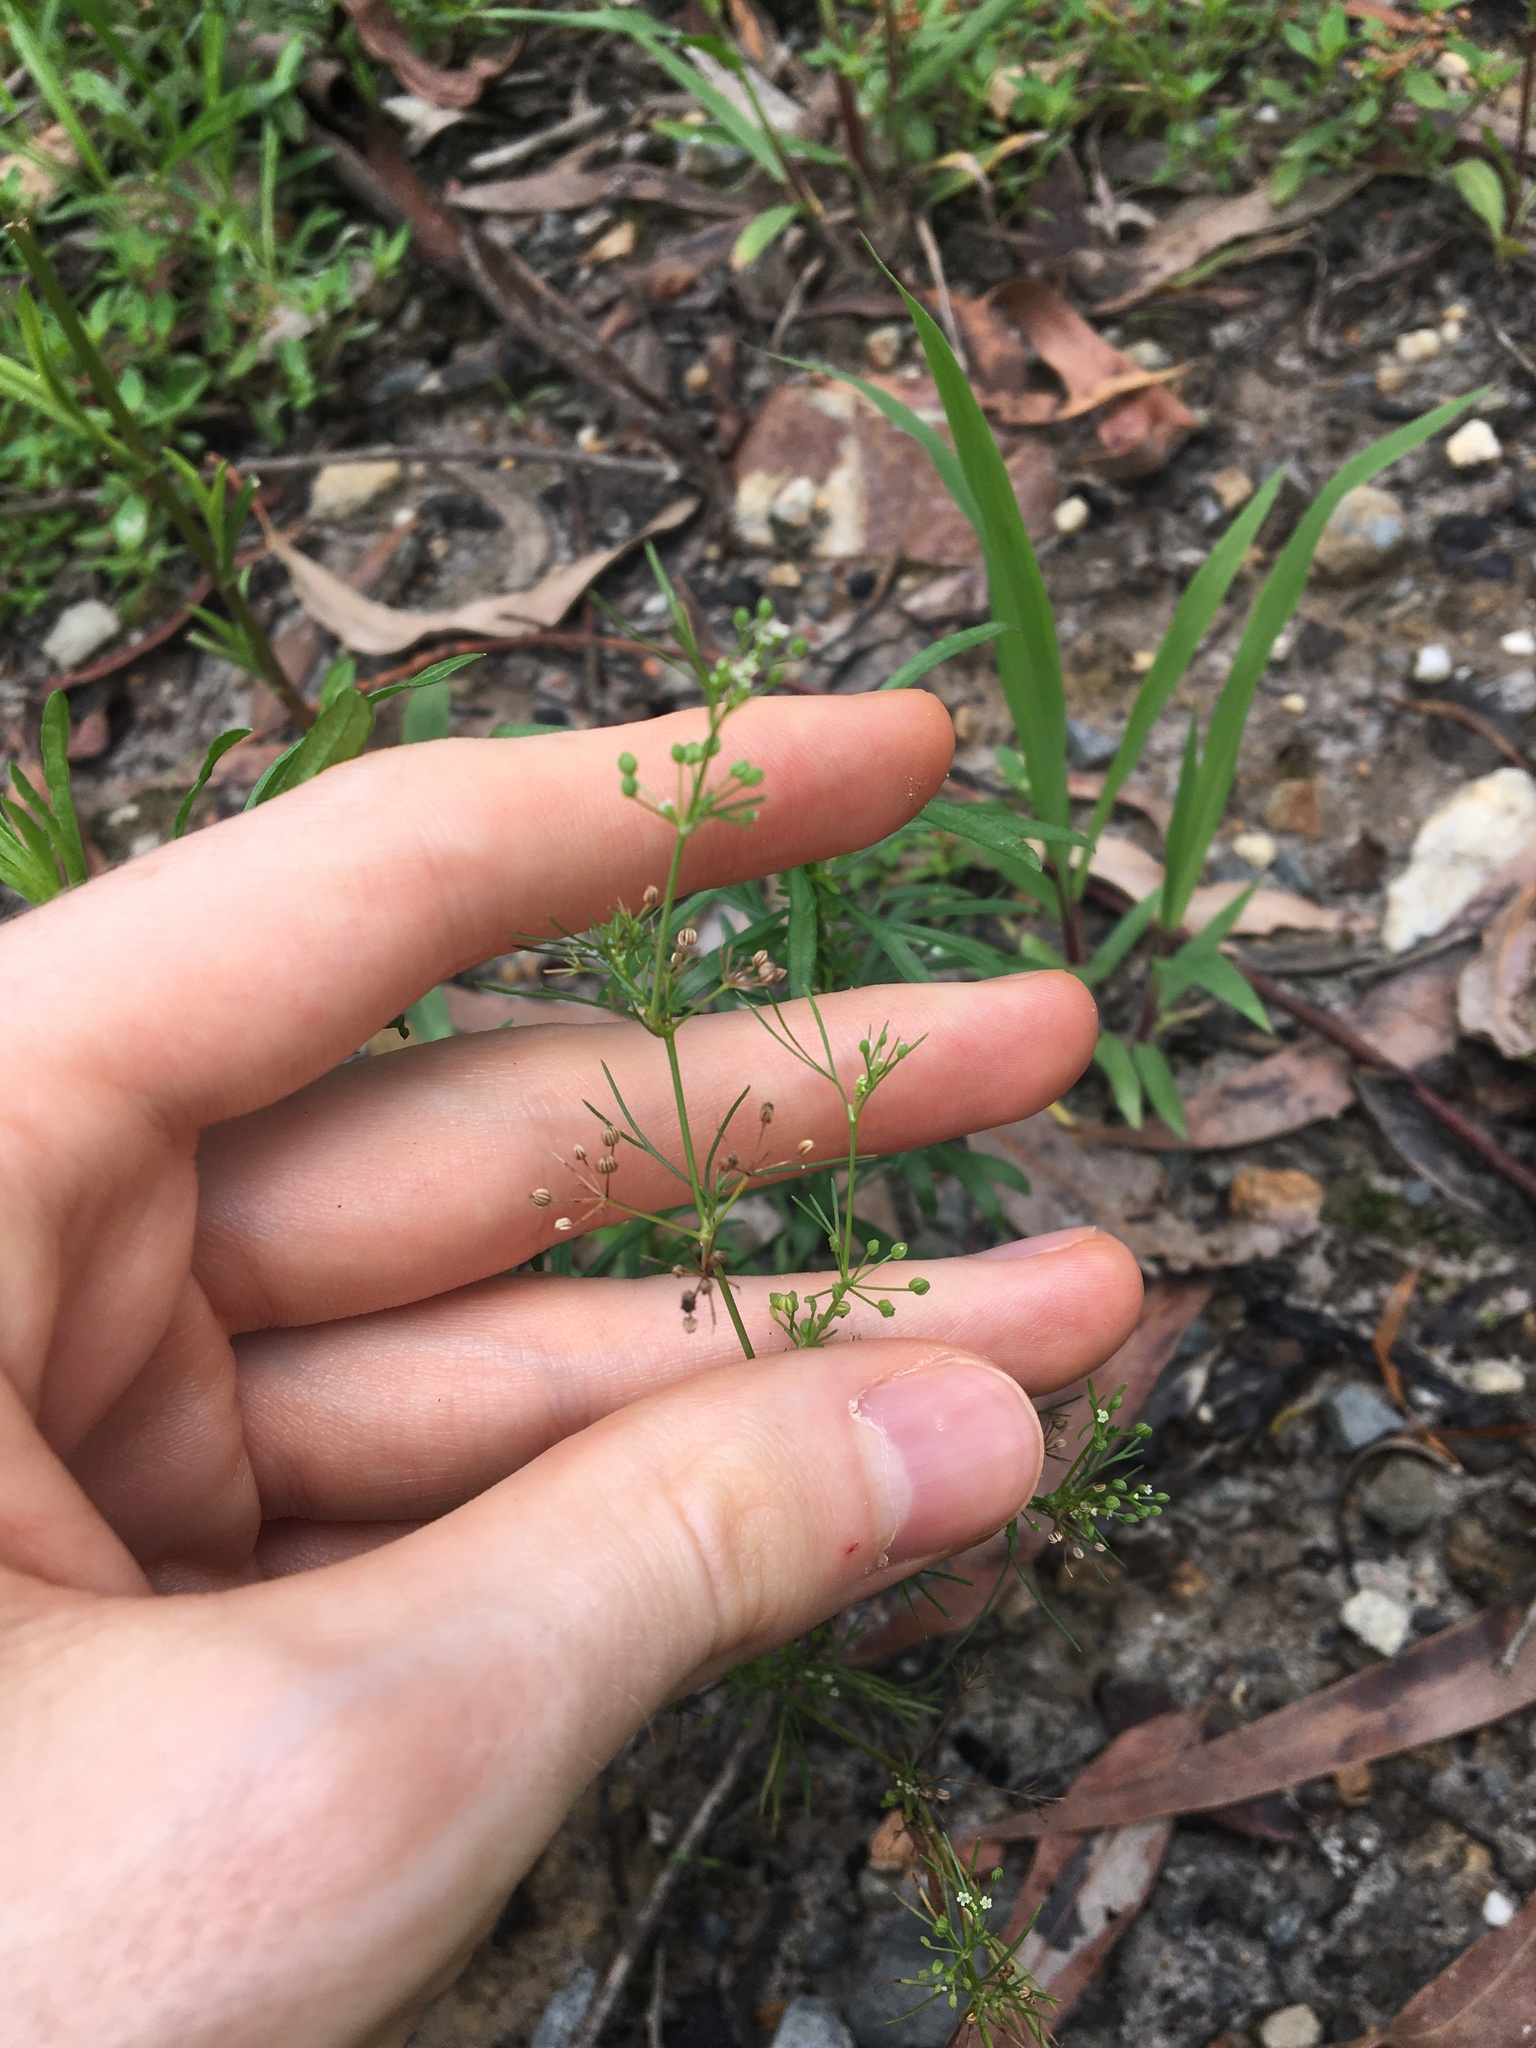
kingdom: Plantae
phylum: Tracheophyta
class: Magnoliopsida
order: Apiales
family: Apiaceae
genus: Cyclospermum
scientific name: Cyclospermum leptophyllum
